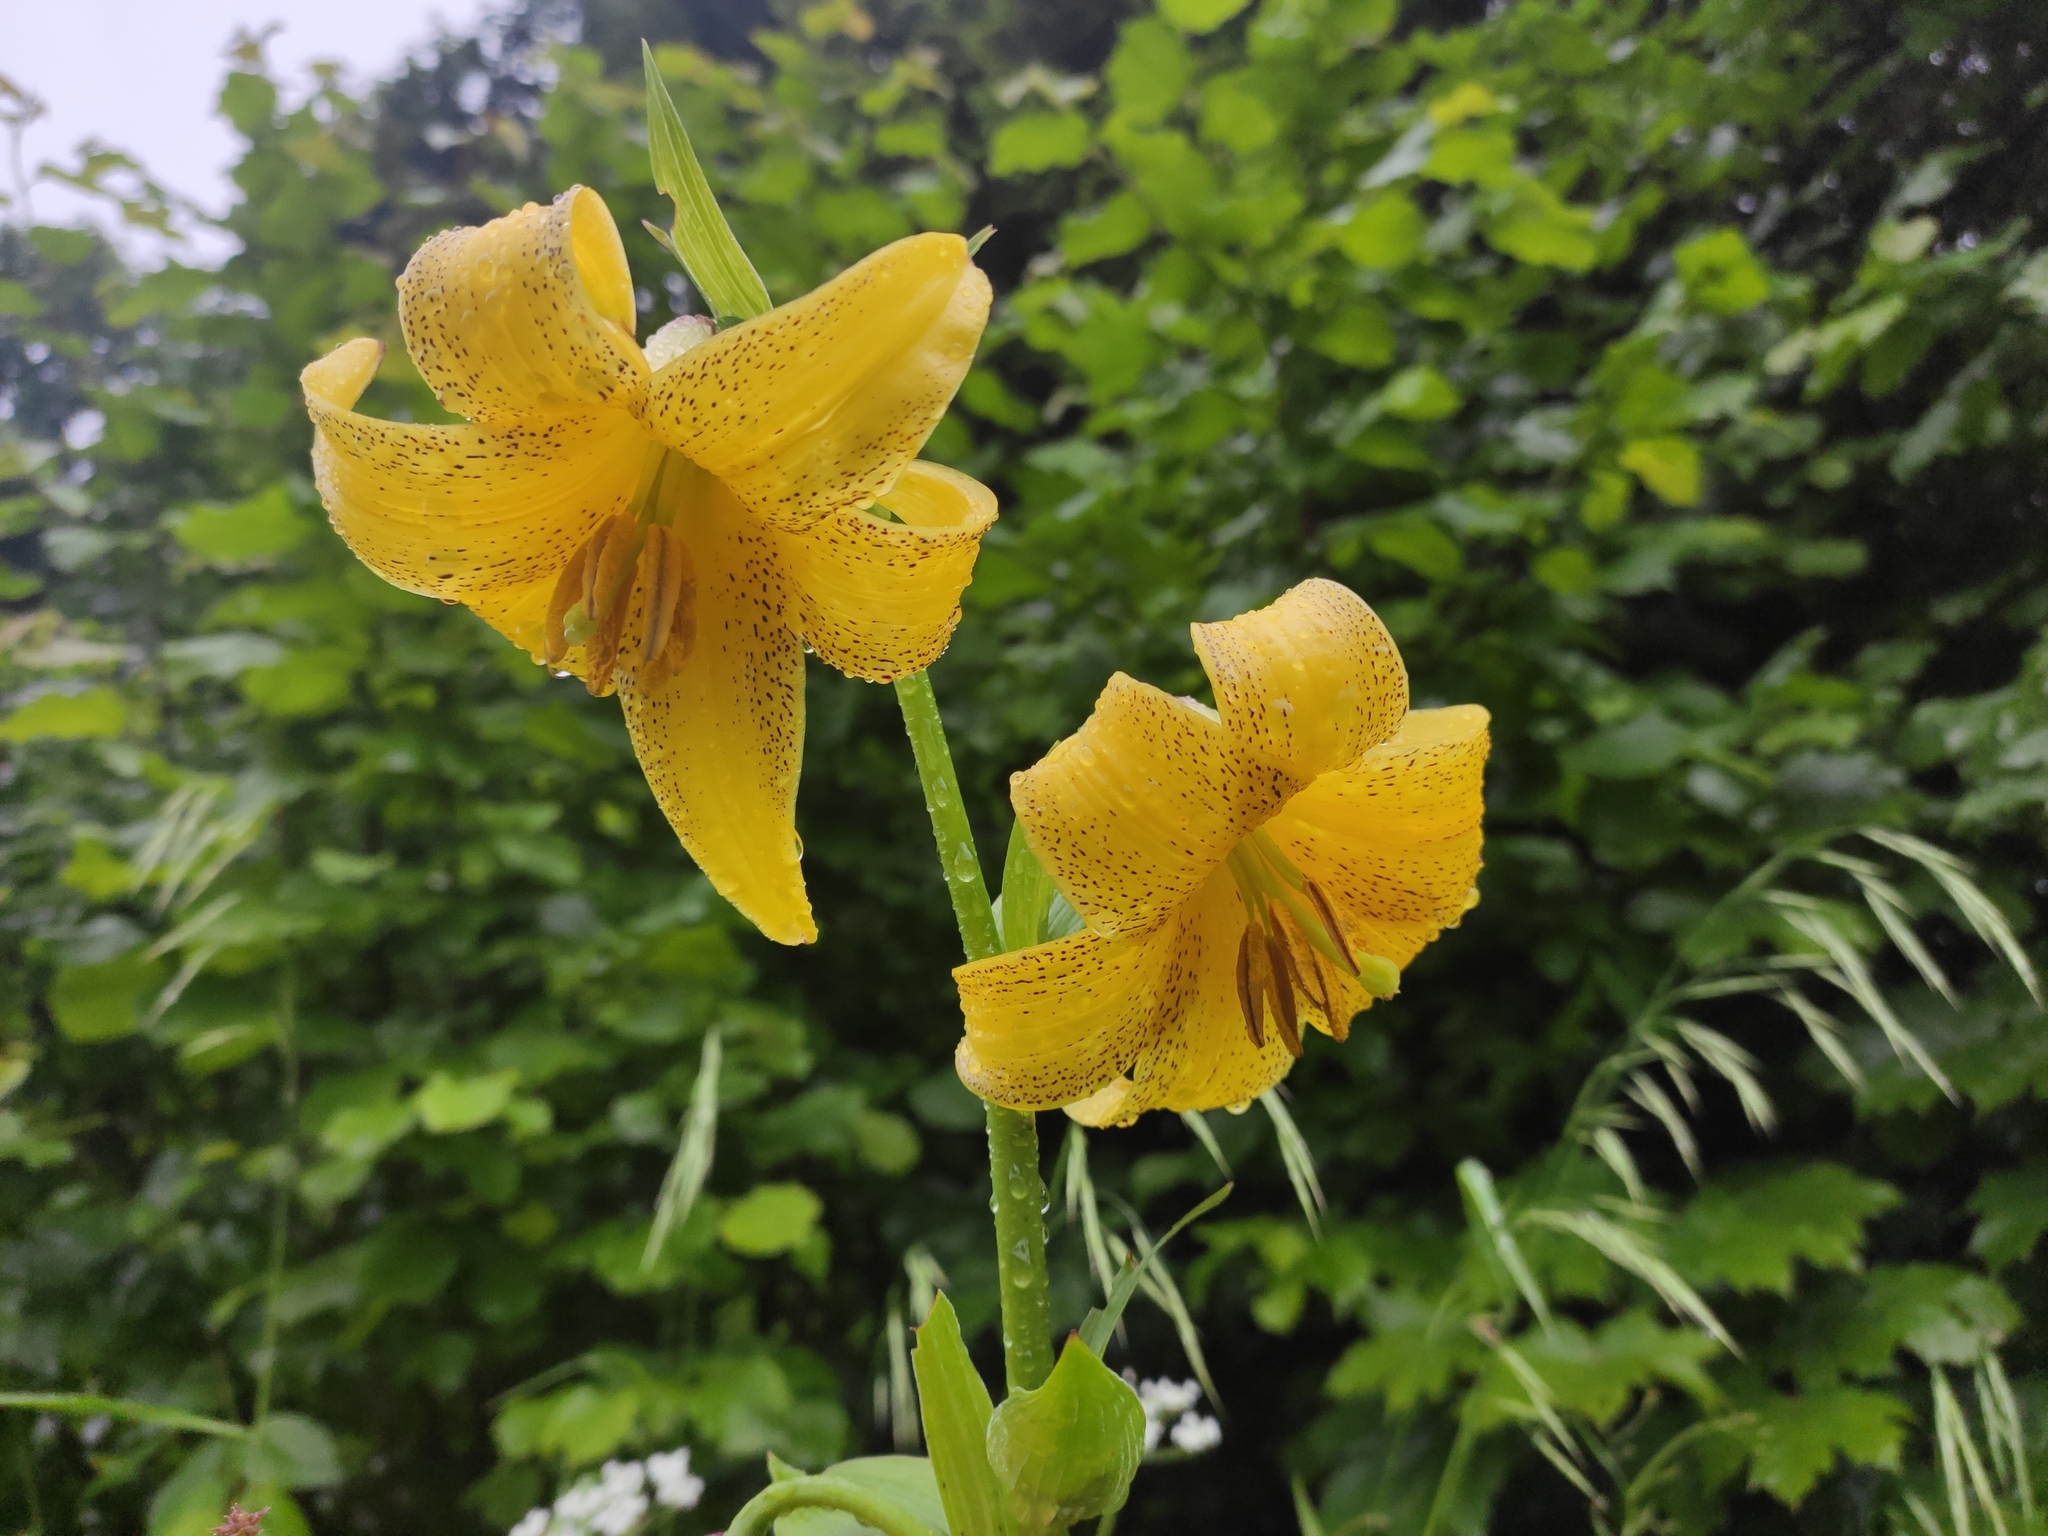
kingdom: Plantae
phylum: Tracheophyta
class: Liliopsida
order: Liliales
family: Liliaceae
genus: Lilium
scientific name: Lilium monadelphum
